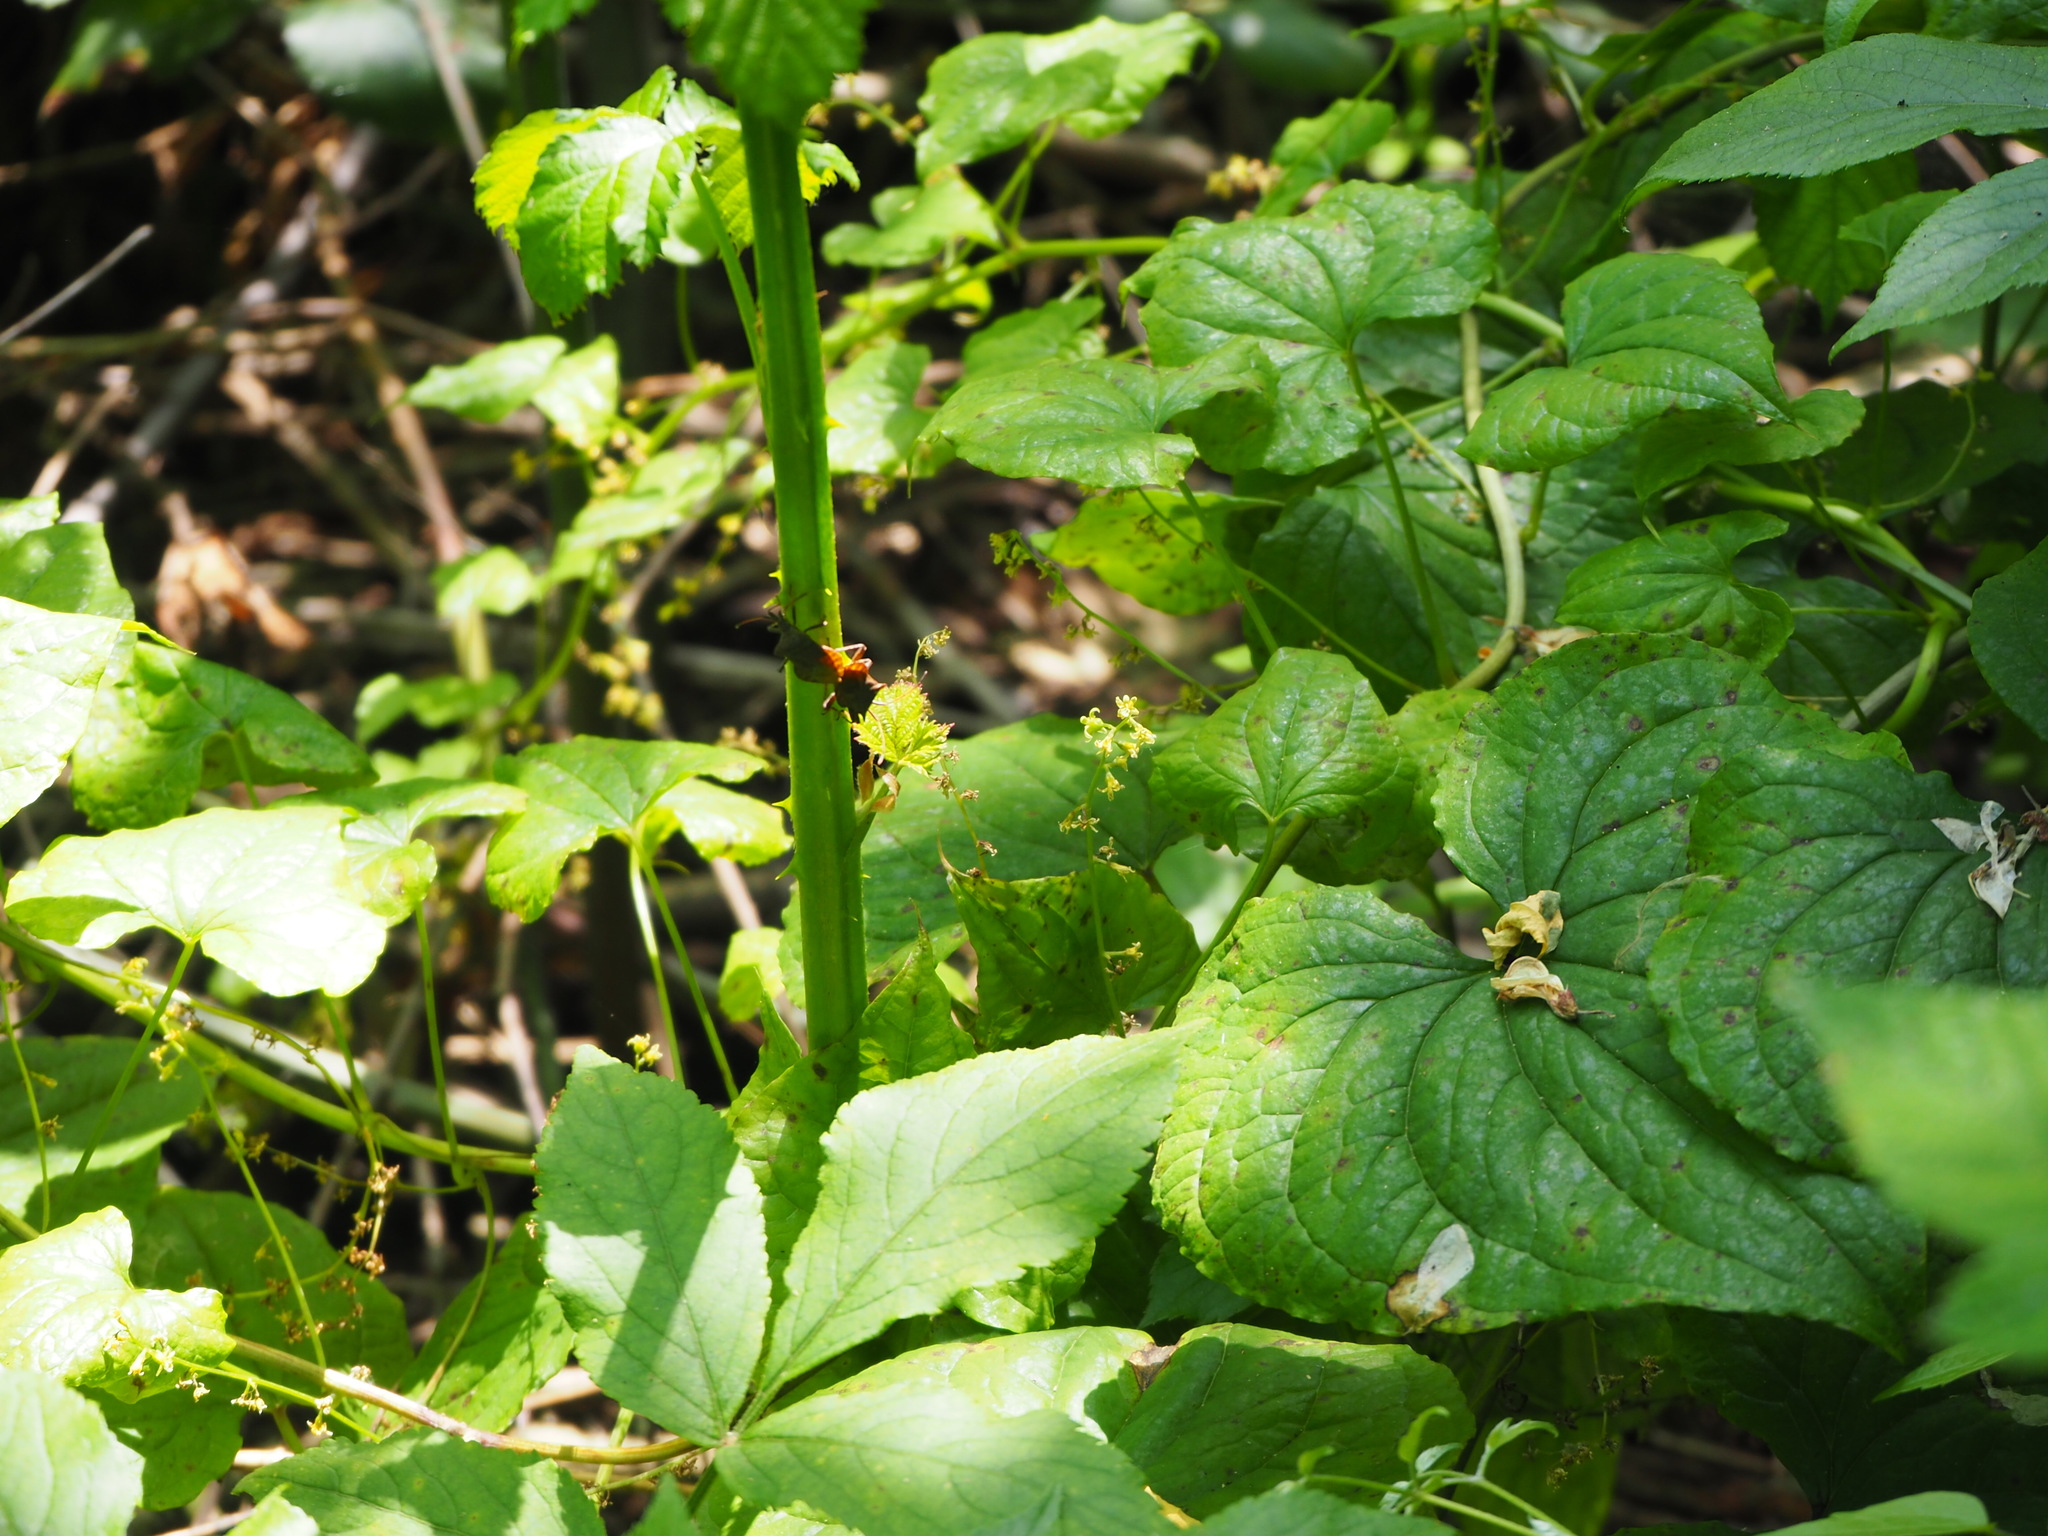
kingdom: Animalia
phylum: Arthropoda
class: Insecta
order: Hemiptera
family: Coreidae
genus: Coreus
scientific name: Coreus marginatus
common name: Dock bug
